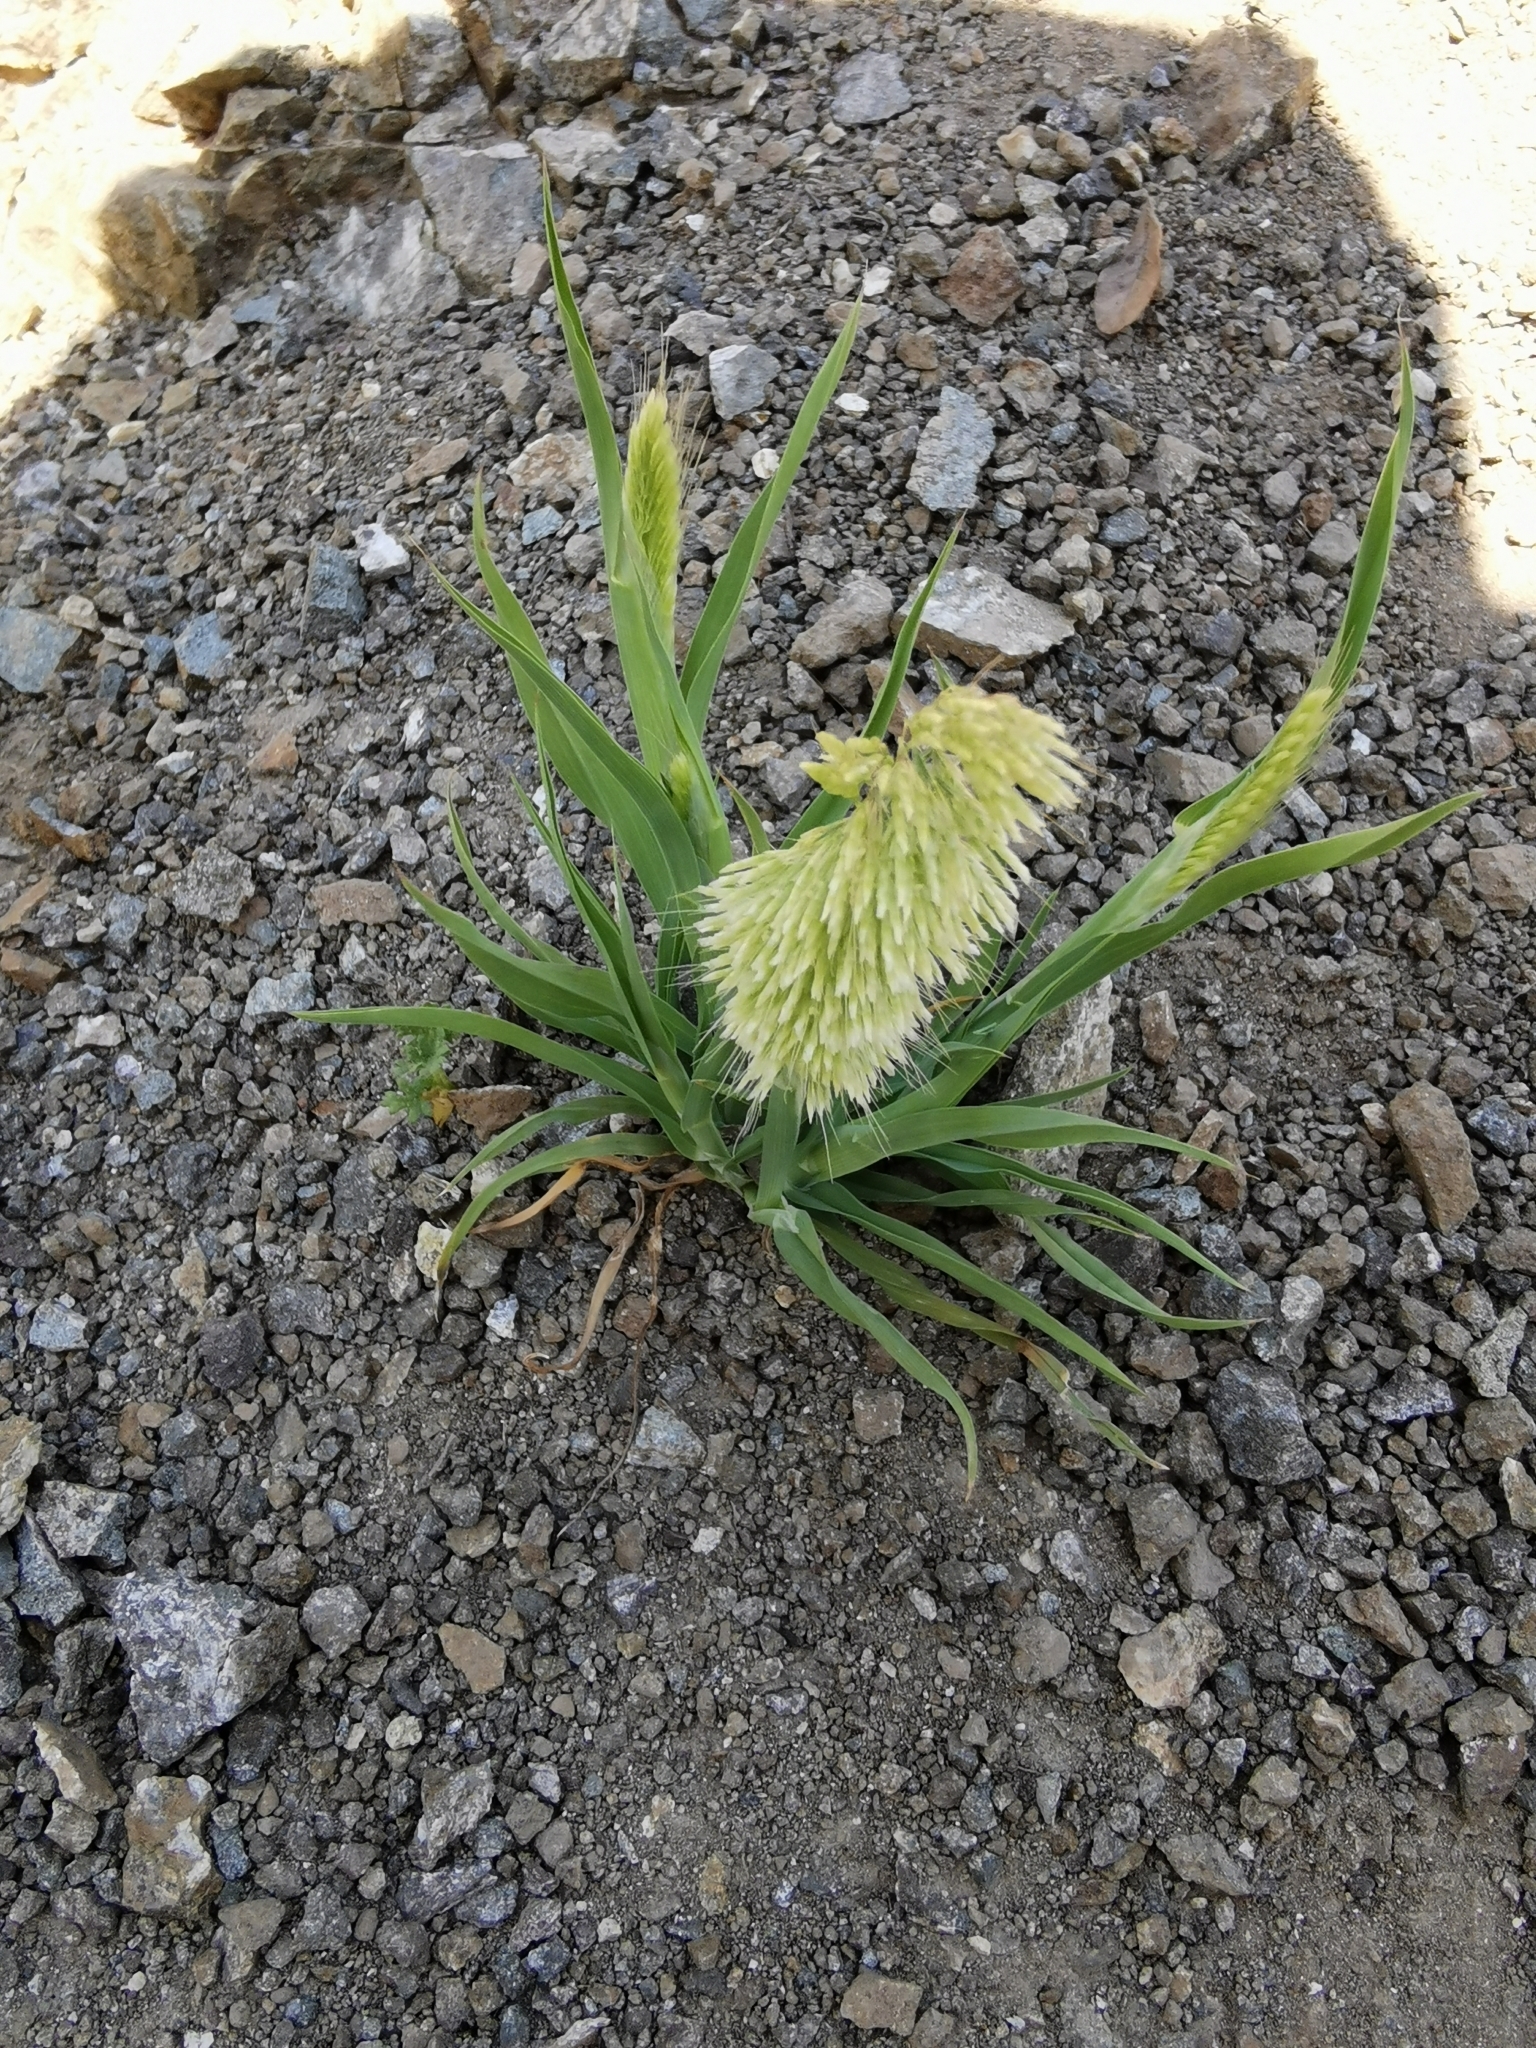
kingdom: Plantae
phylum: Tracheophyta
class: Liliopsida
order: Poales
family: Poaceae
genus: Lamarckia
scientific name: Lamarckia aurea
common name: Golden dog's-tail
